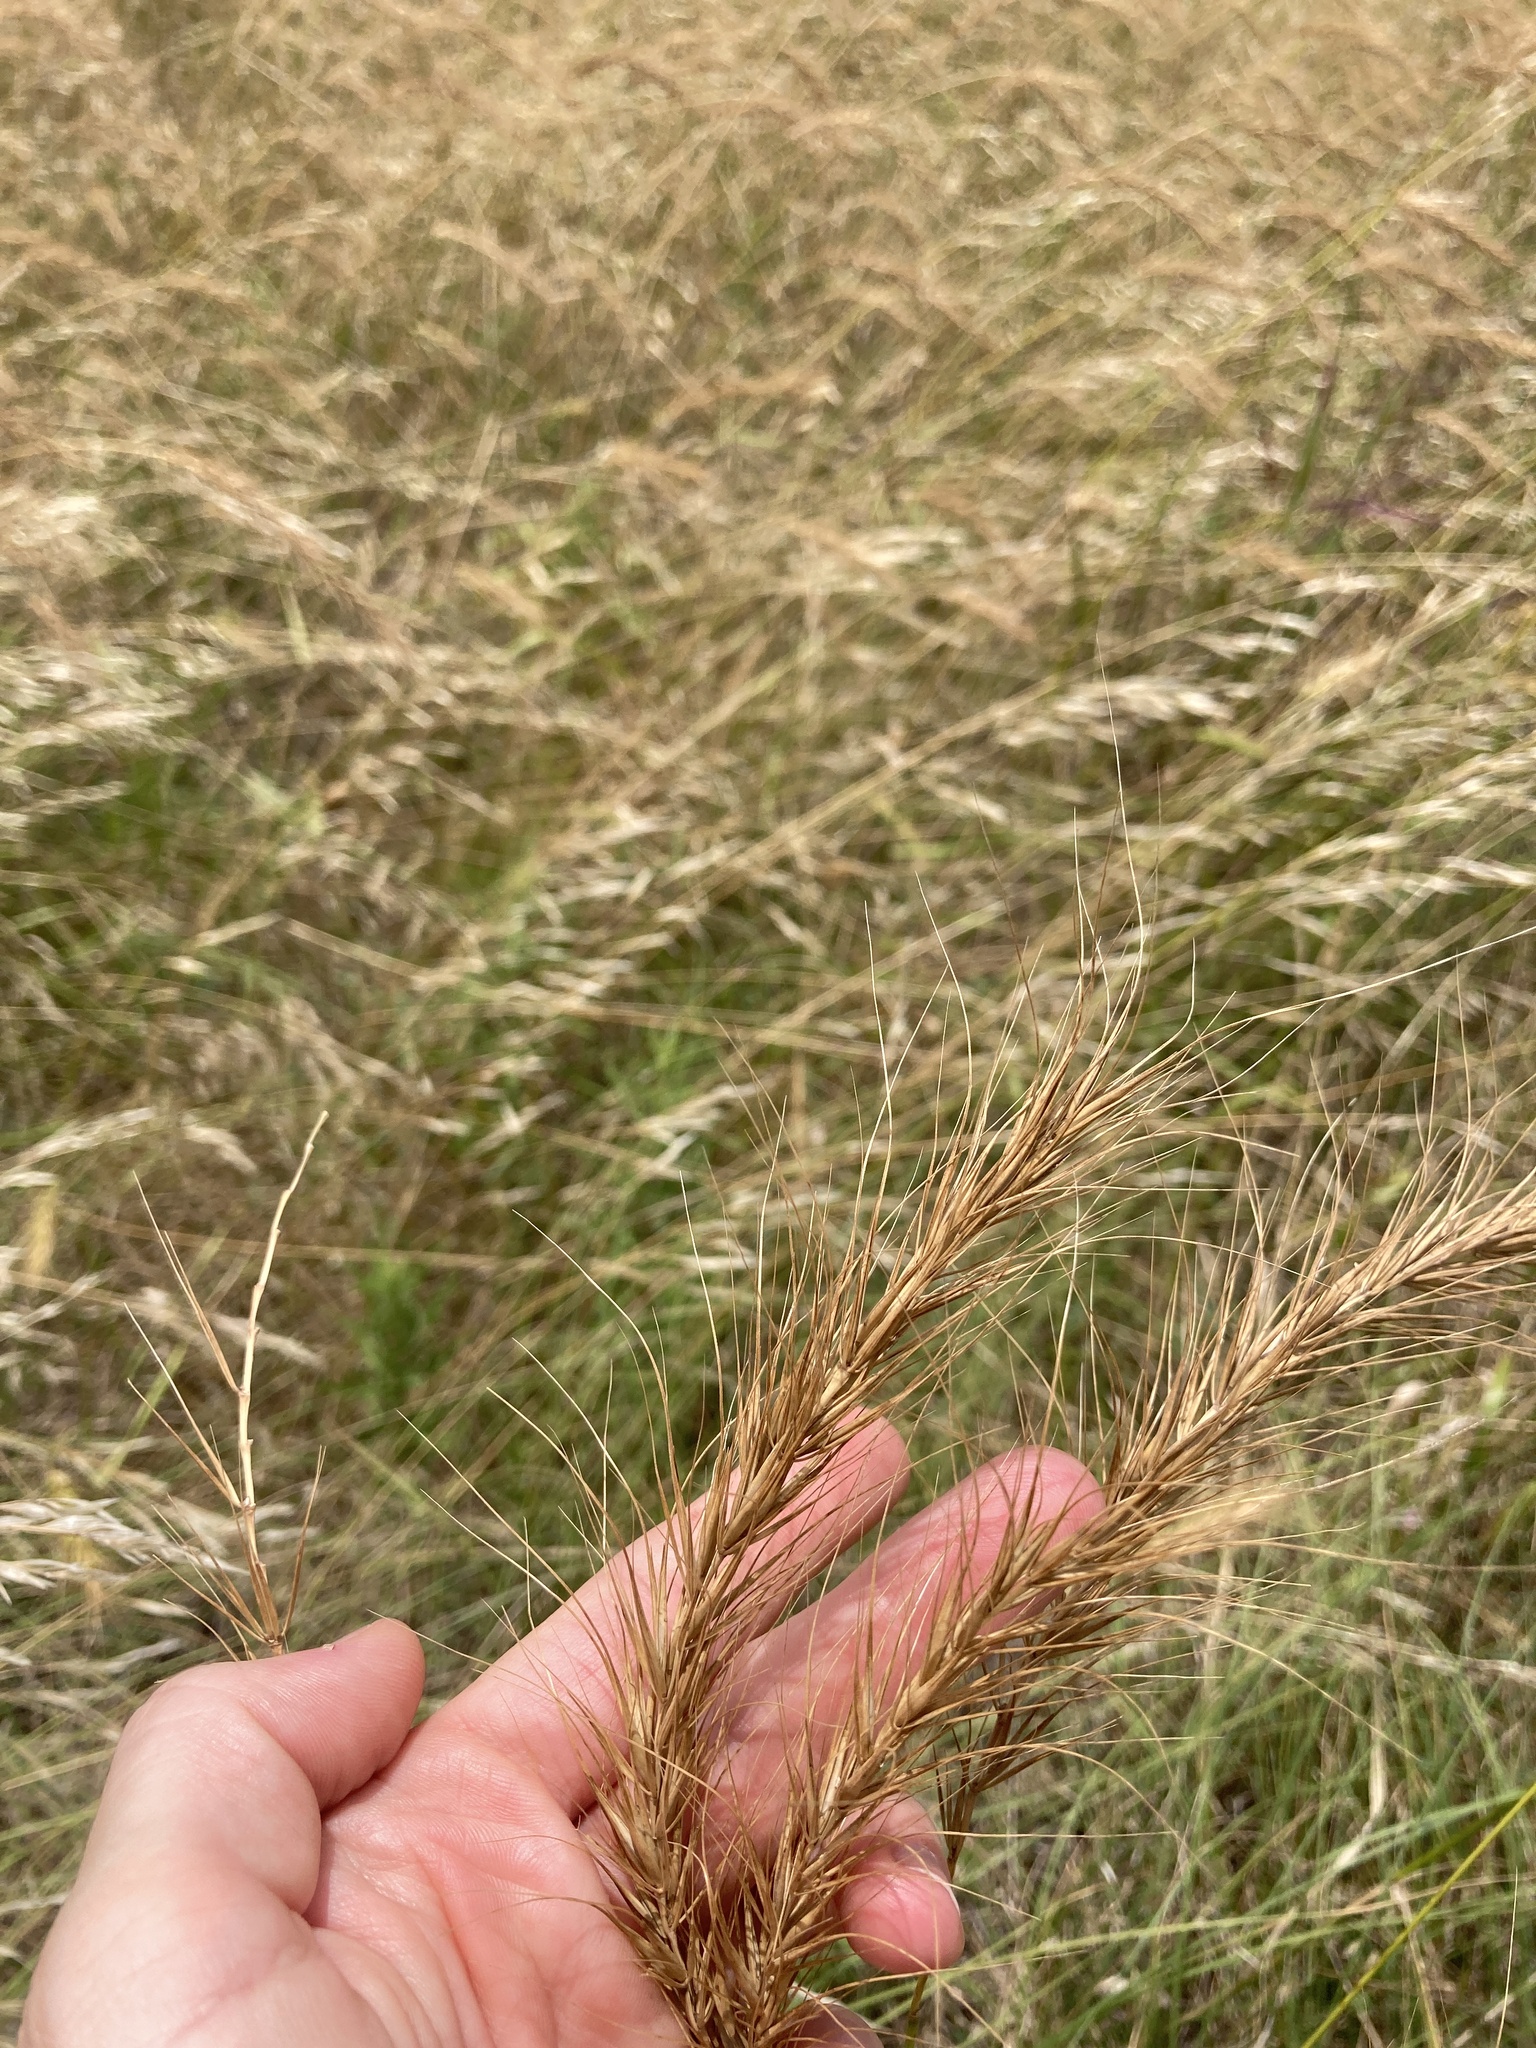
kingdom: Plantae
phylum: Tracheophyta
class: Liliopsida
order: Poales
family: Poaceae
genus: Elymus
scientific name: Elymus canadensis
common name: Canada wild rye
